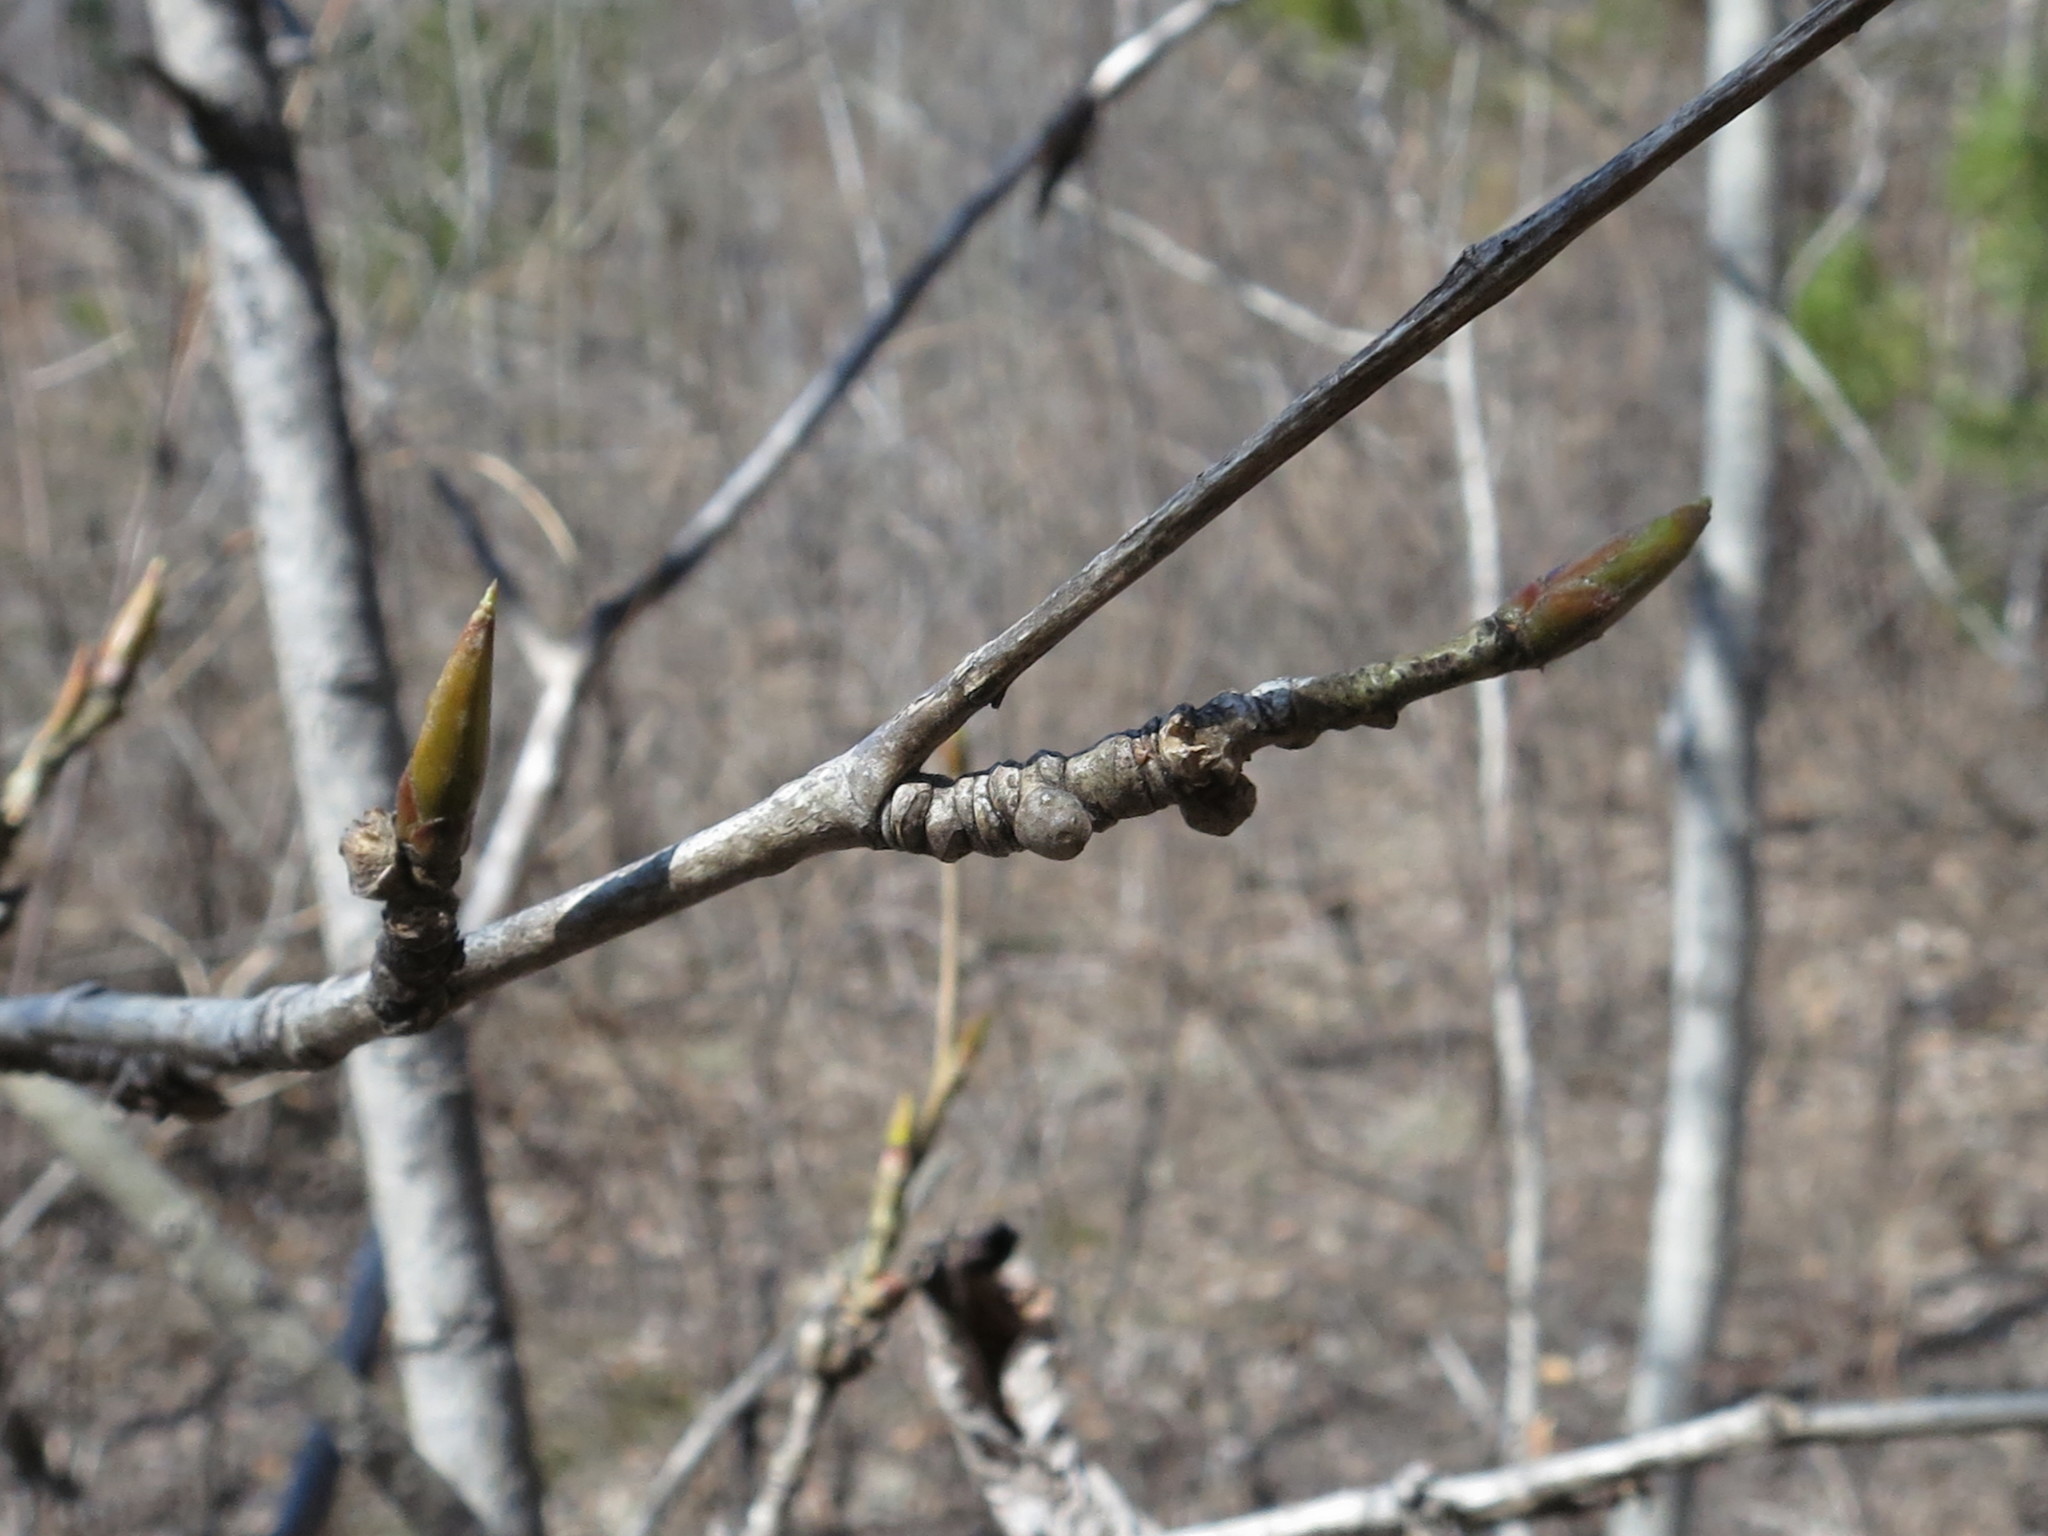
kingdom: Plantae
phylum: Tracheophyta
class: Magnoliopsida
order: Malpighiales
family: Salicaceae
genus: Populus
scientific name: Populus suaveolens
